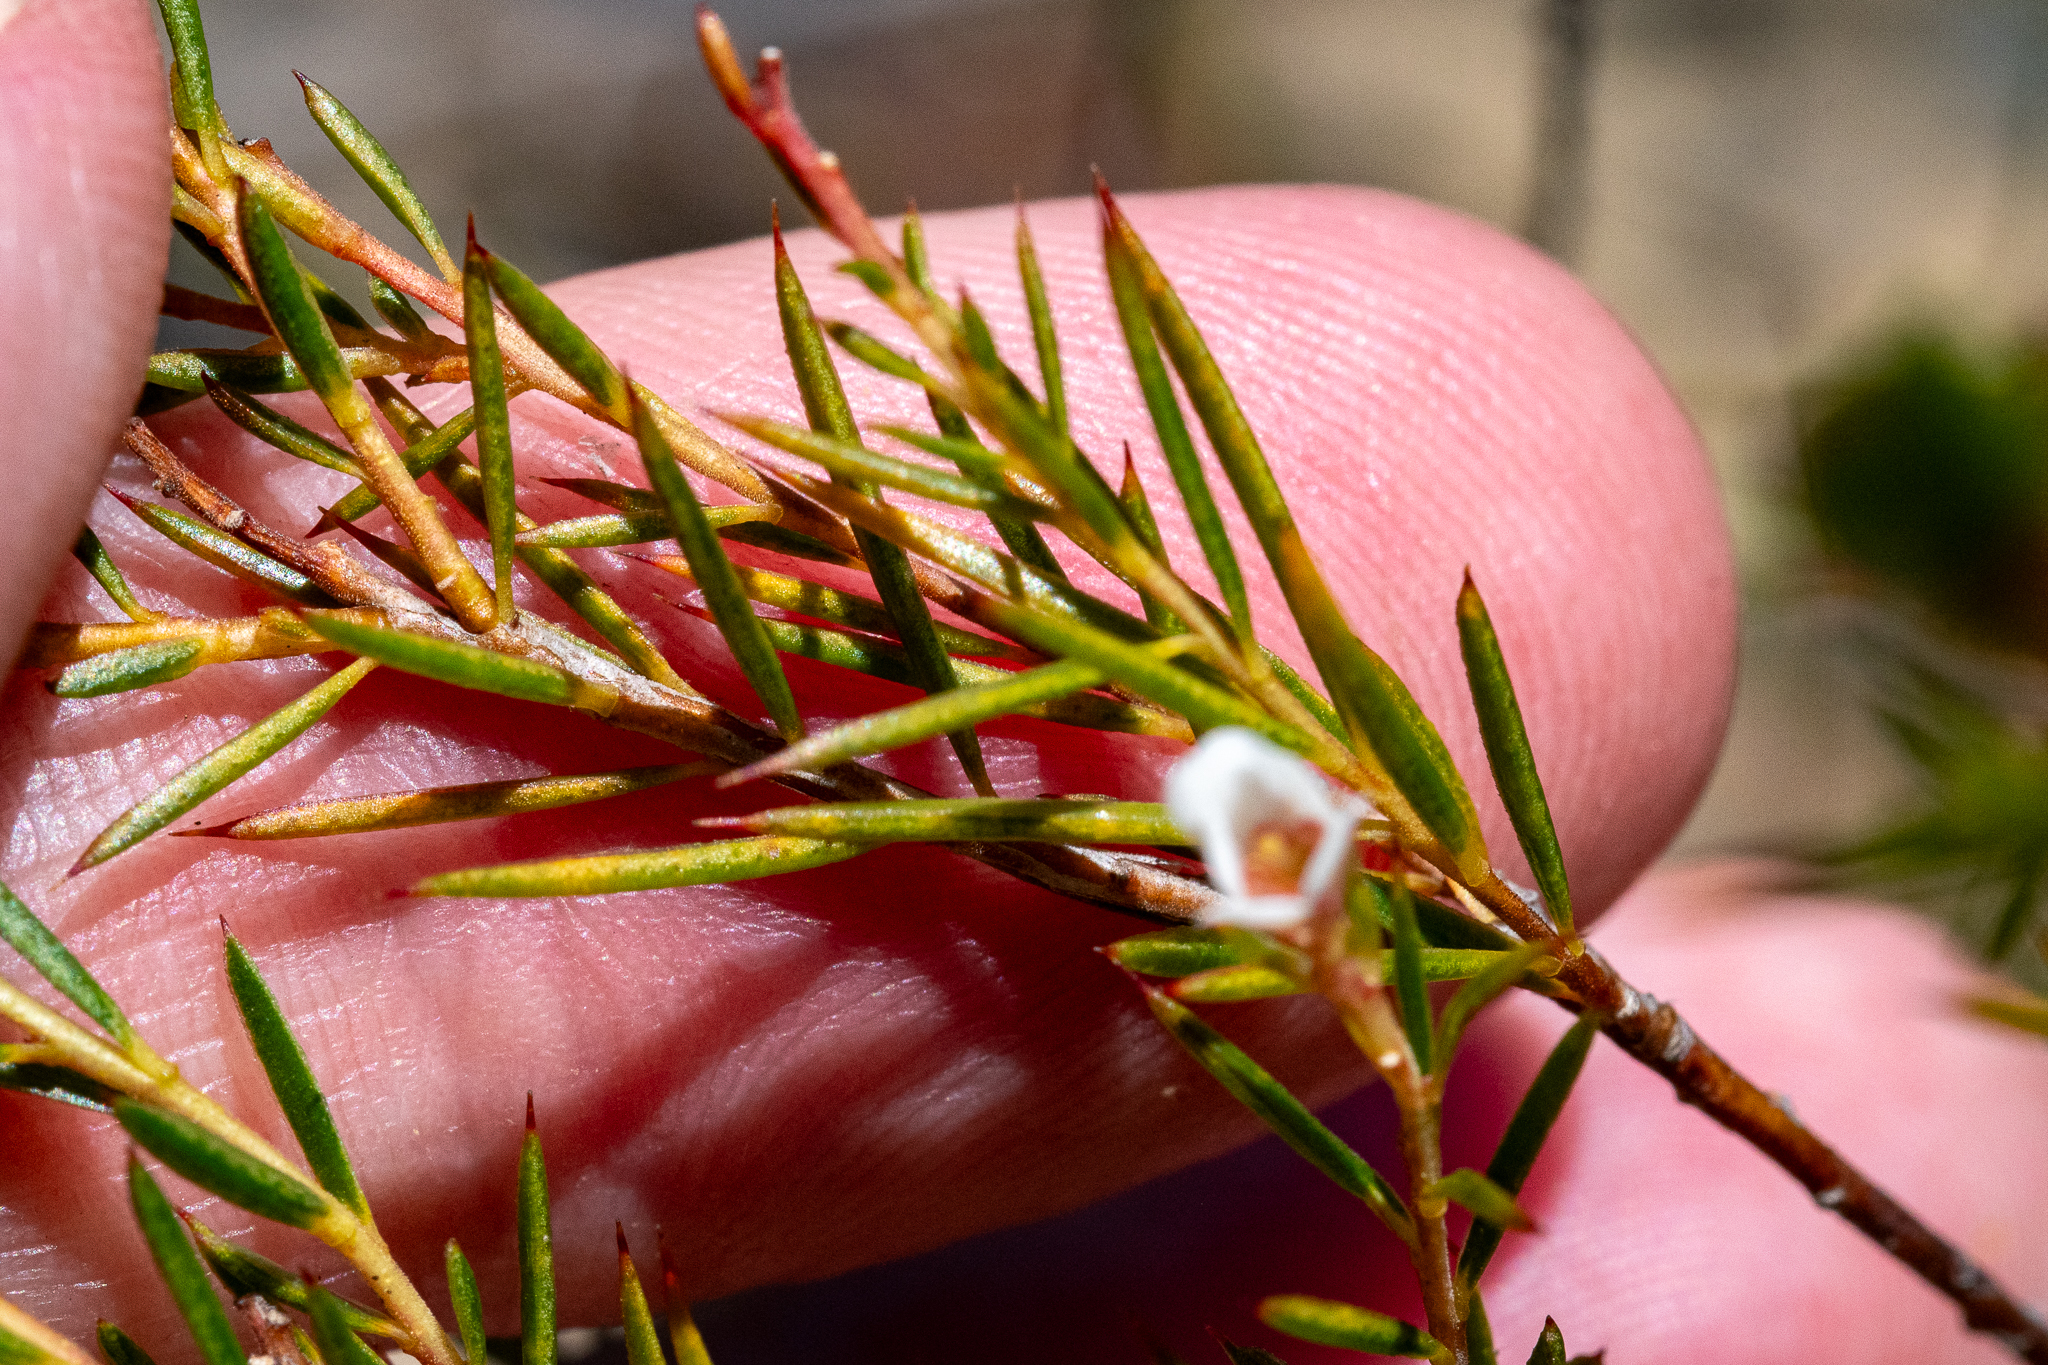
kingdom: Plantae
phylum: Tracheophyta
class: Magnoliopsida
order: Sapindales
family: Rutaceae
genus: Diosma
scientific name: Diosma hirsuta
